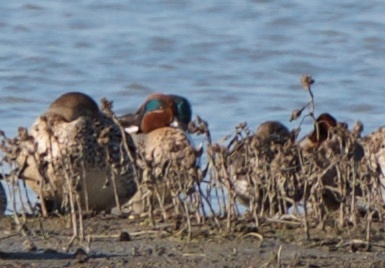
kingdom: Animalia
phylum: Chordata
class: Aves
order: Anseriformes
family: Anatidae
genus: Anas
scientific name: Anas crecca
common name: Eurasian teal
